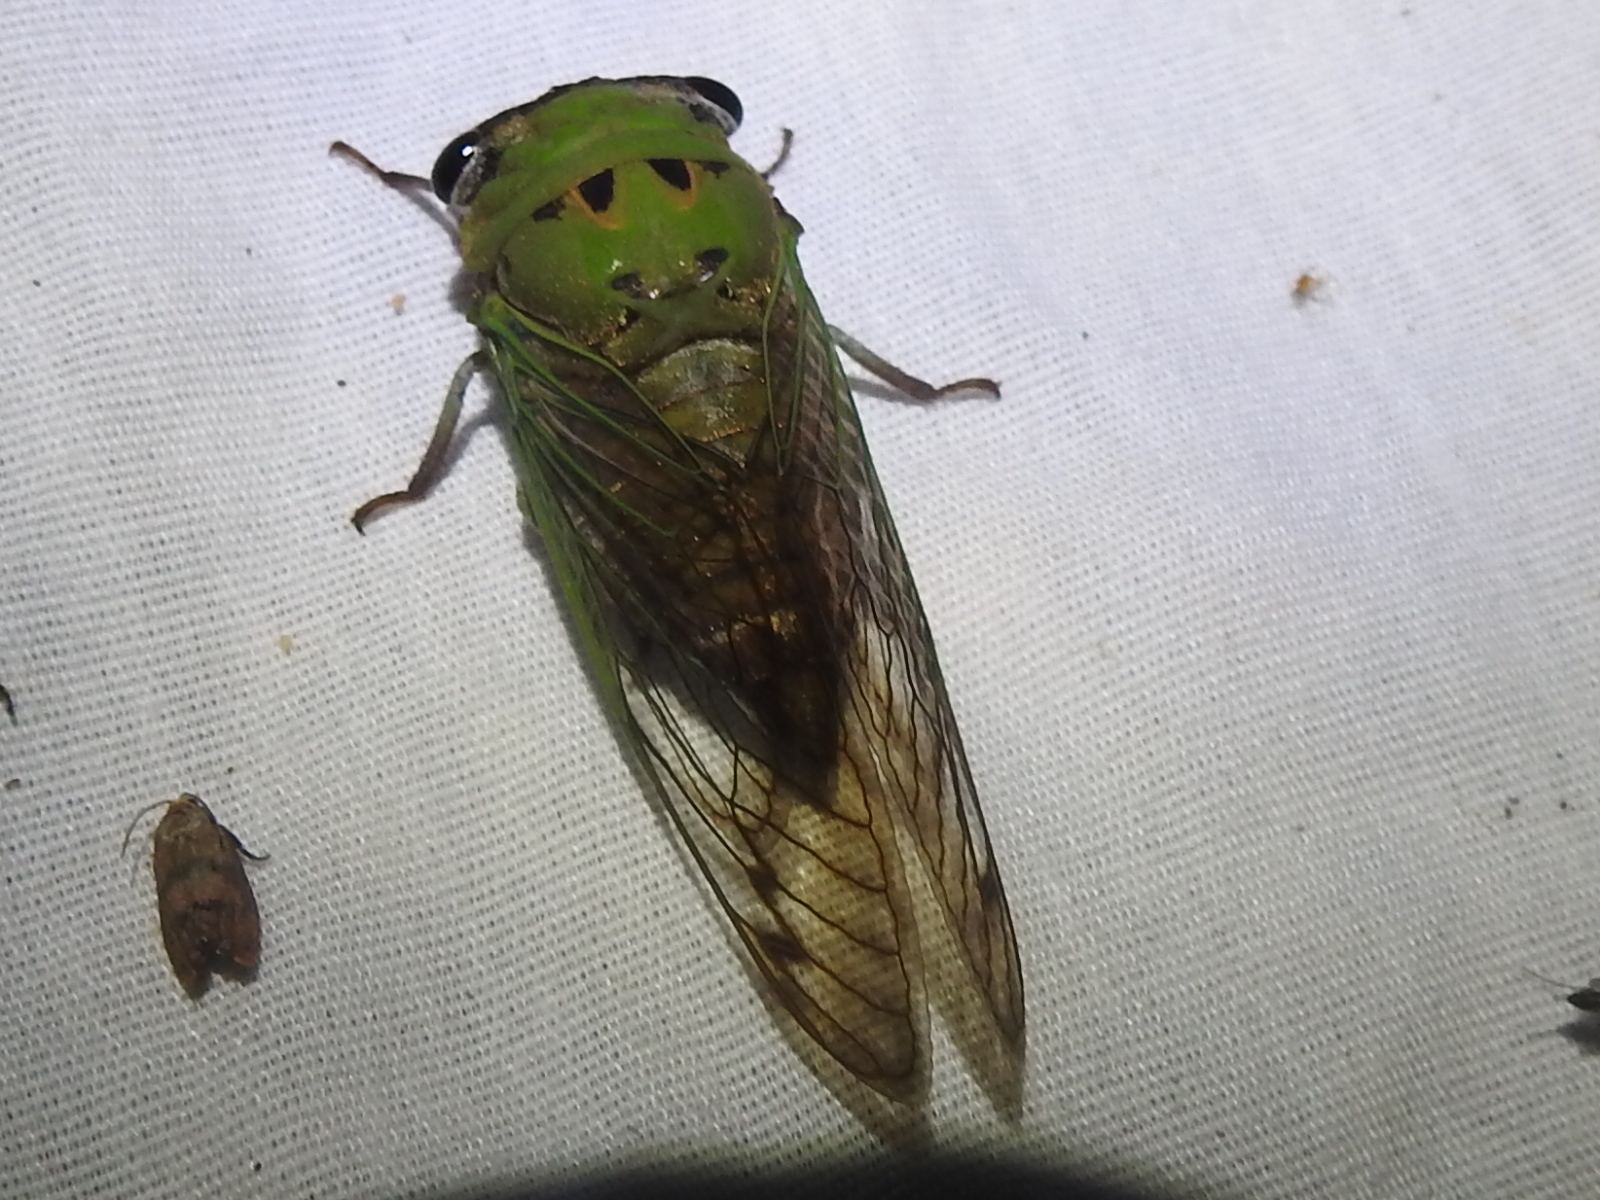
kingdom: Animalia
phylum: Arthropoda
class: Insecta
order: Hemiptera
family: Cicadidae
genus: Neotibicen
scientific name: Neotibicen superbus
